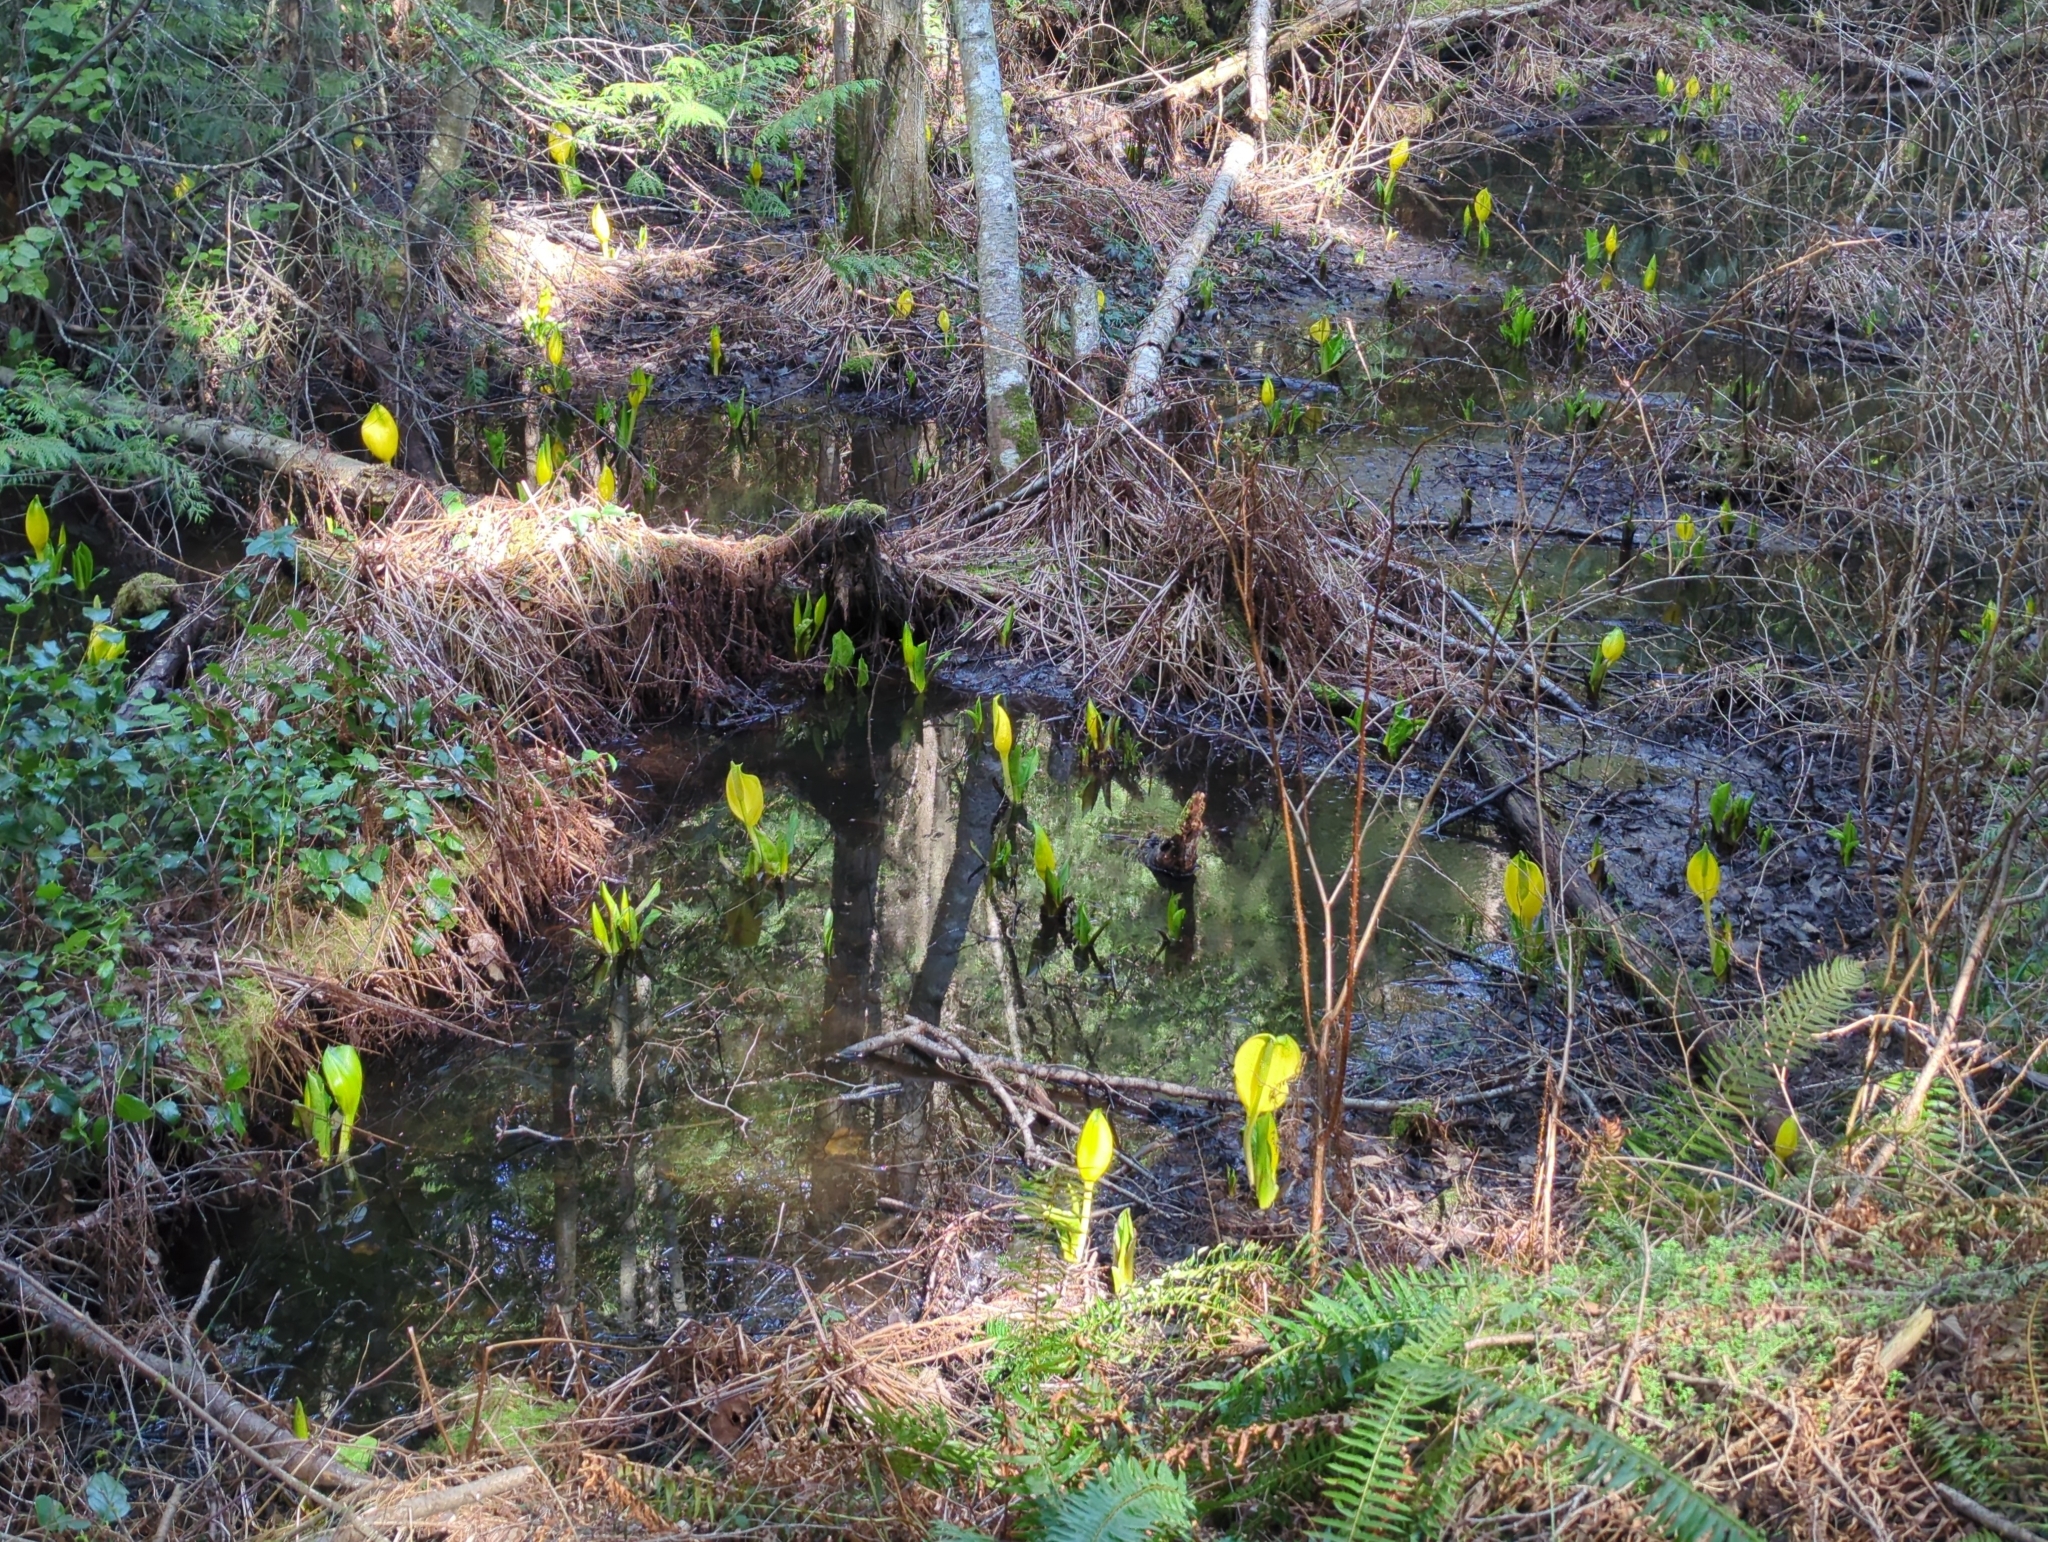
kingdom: Plantae
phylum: Tracheophyta
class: Liliopsida
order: Alismatales
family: Araceae
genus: Lysichiton
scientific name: Lysichiton americanus
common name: American skunk cabbage
